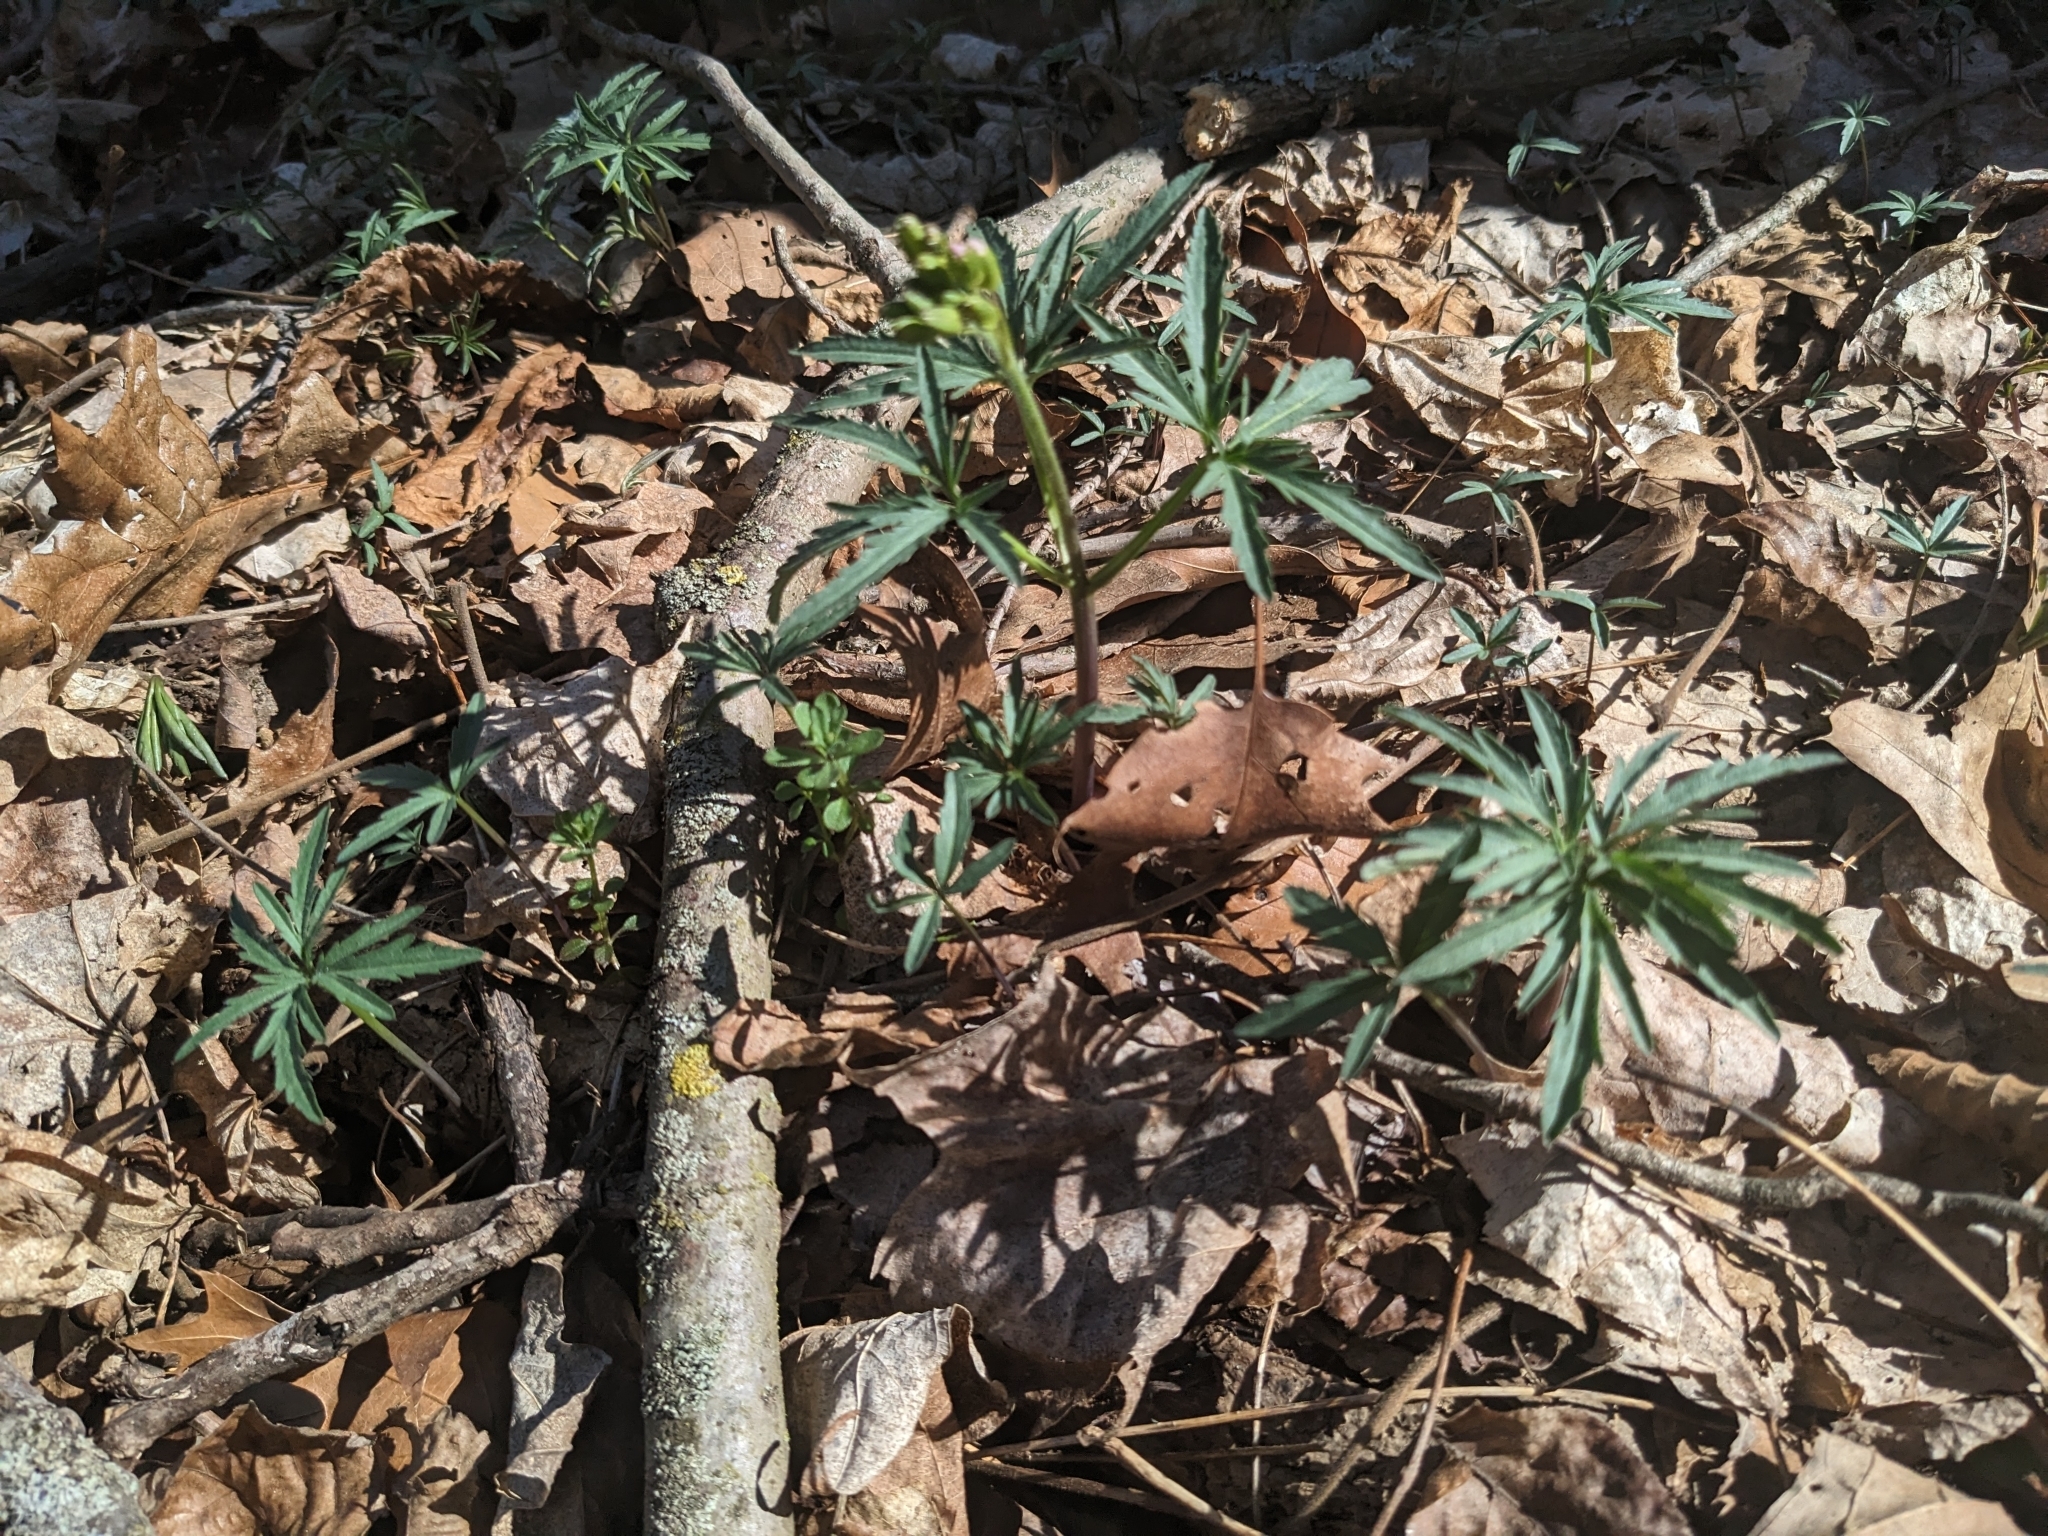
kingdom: Plantae
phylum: Tracheophyta
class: Magnoliopsida
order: Brassicales
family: Brassicaceae
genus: Cardamine
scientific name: Cardamine concatenata
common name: Cut-leaf toothcup
